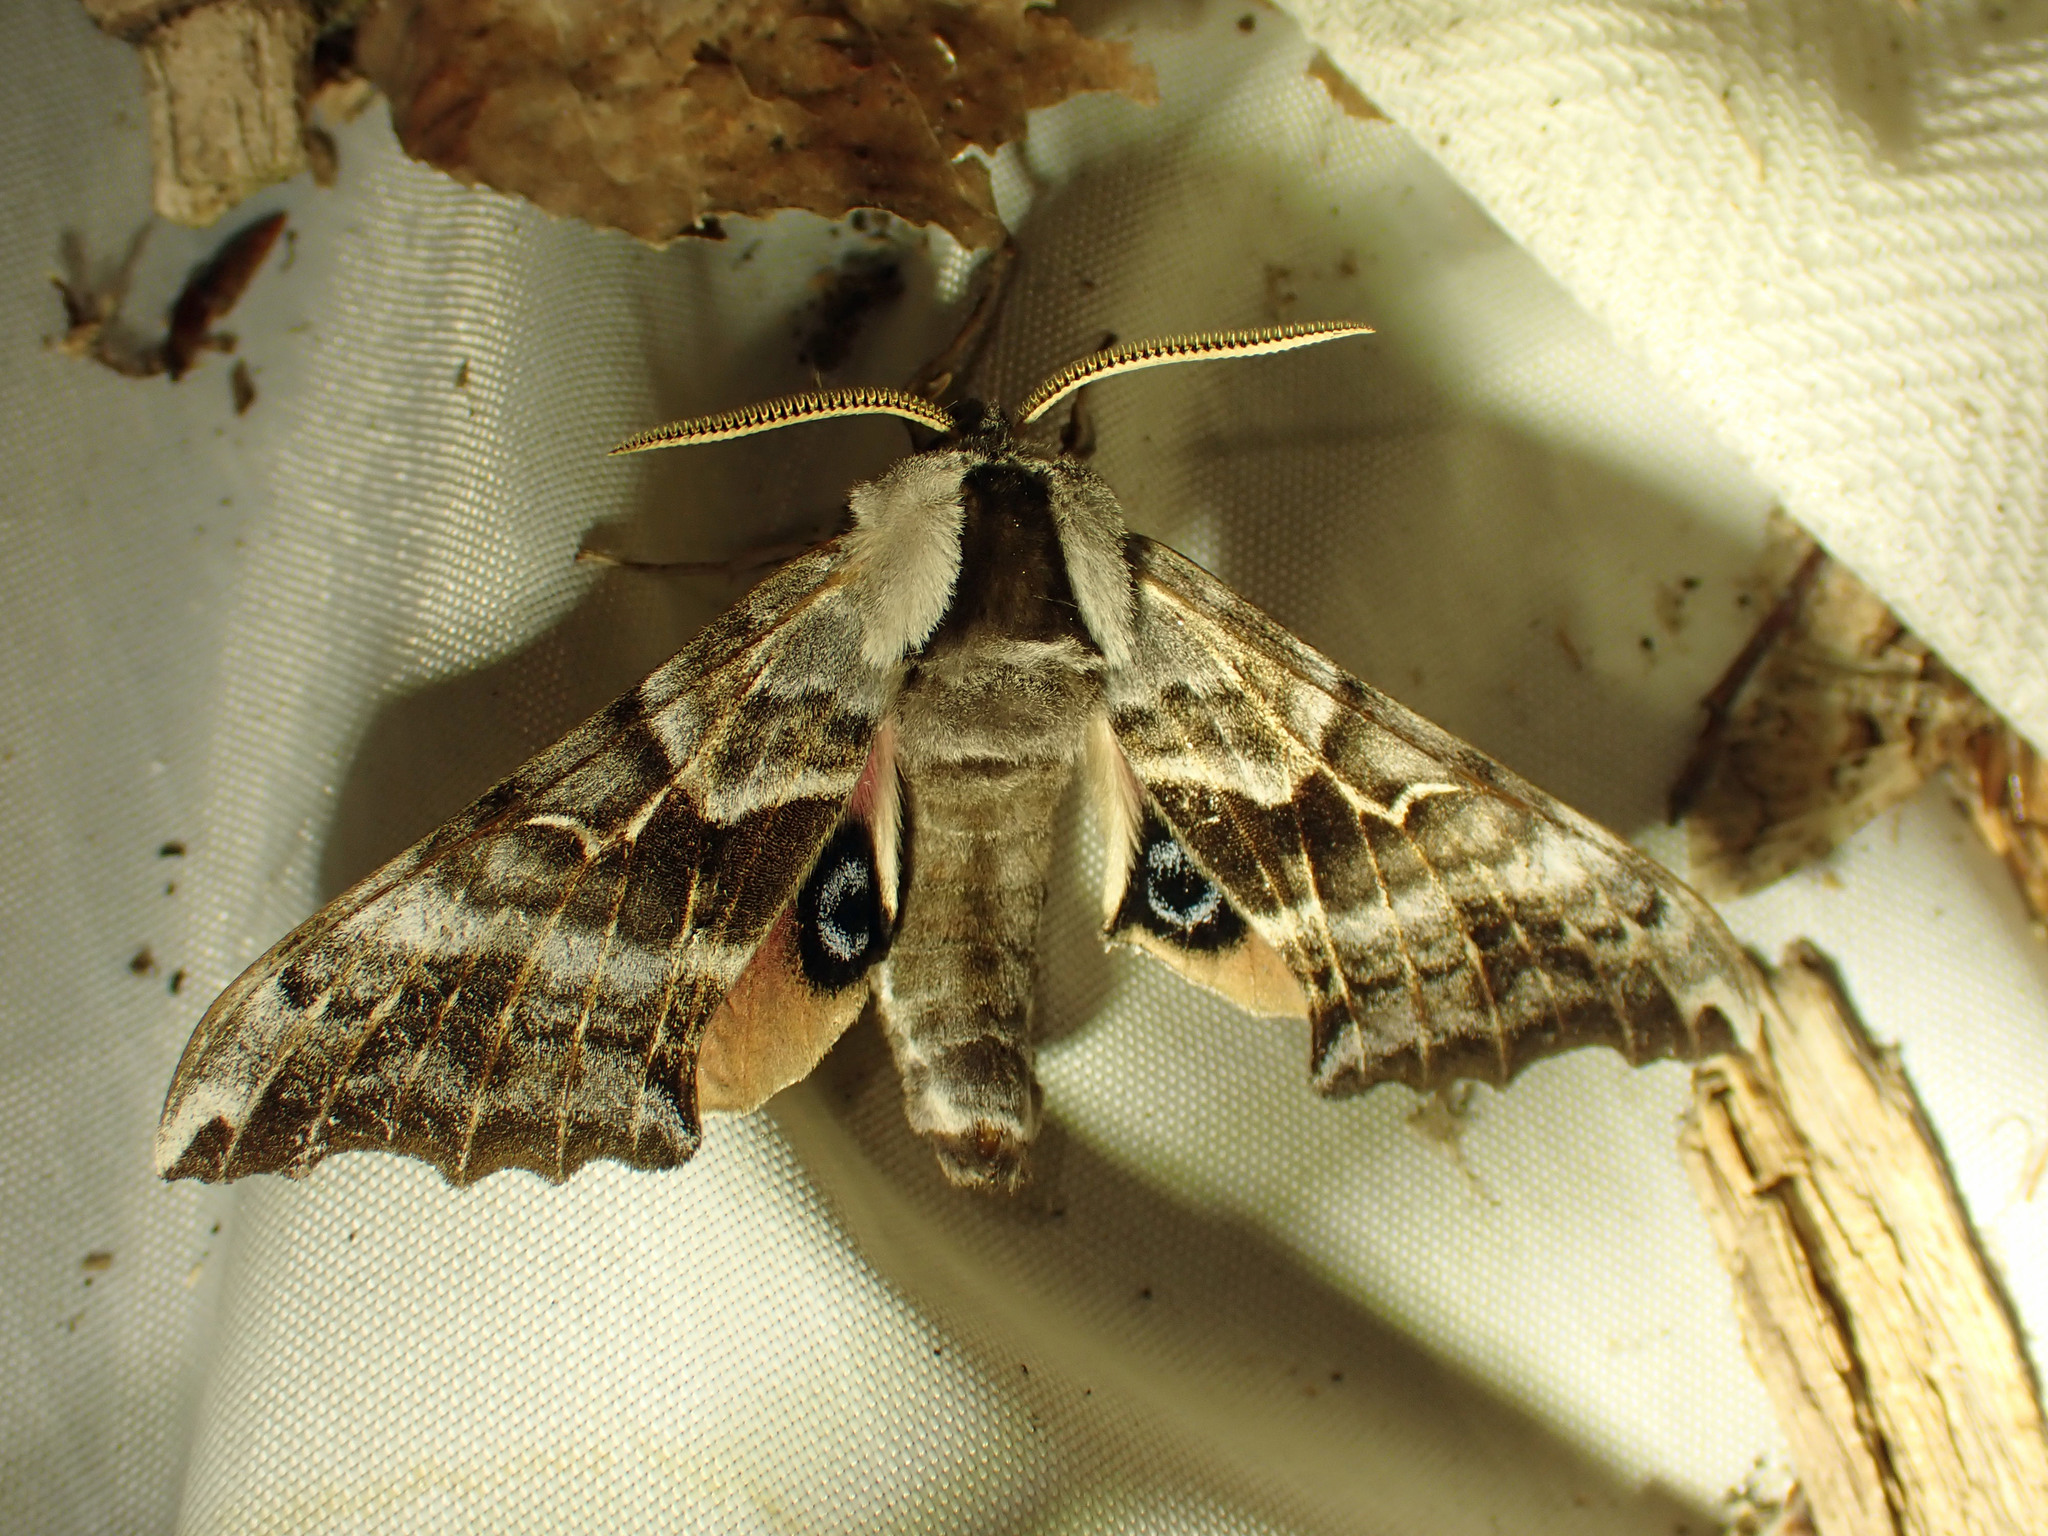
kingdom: Animalia
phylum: Arthropoda
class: Insecta
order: Lepidoptera
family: Sphingidae
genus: Smerinthus
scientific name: Smerinthus cerisyi
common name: Cerisy's sphinx moth
